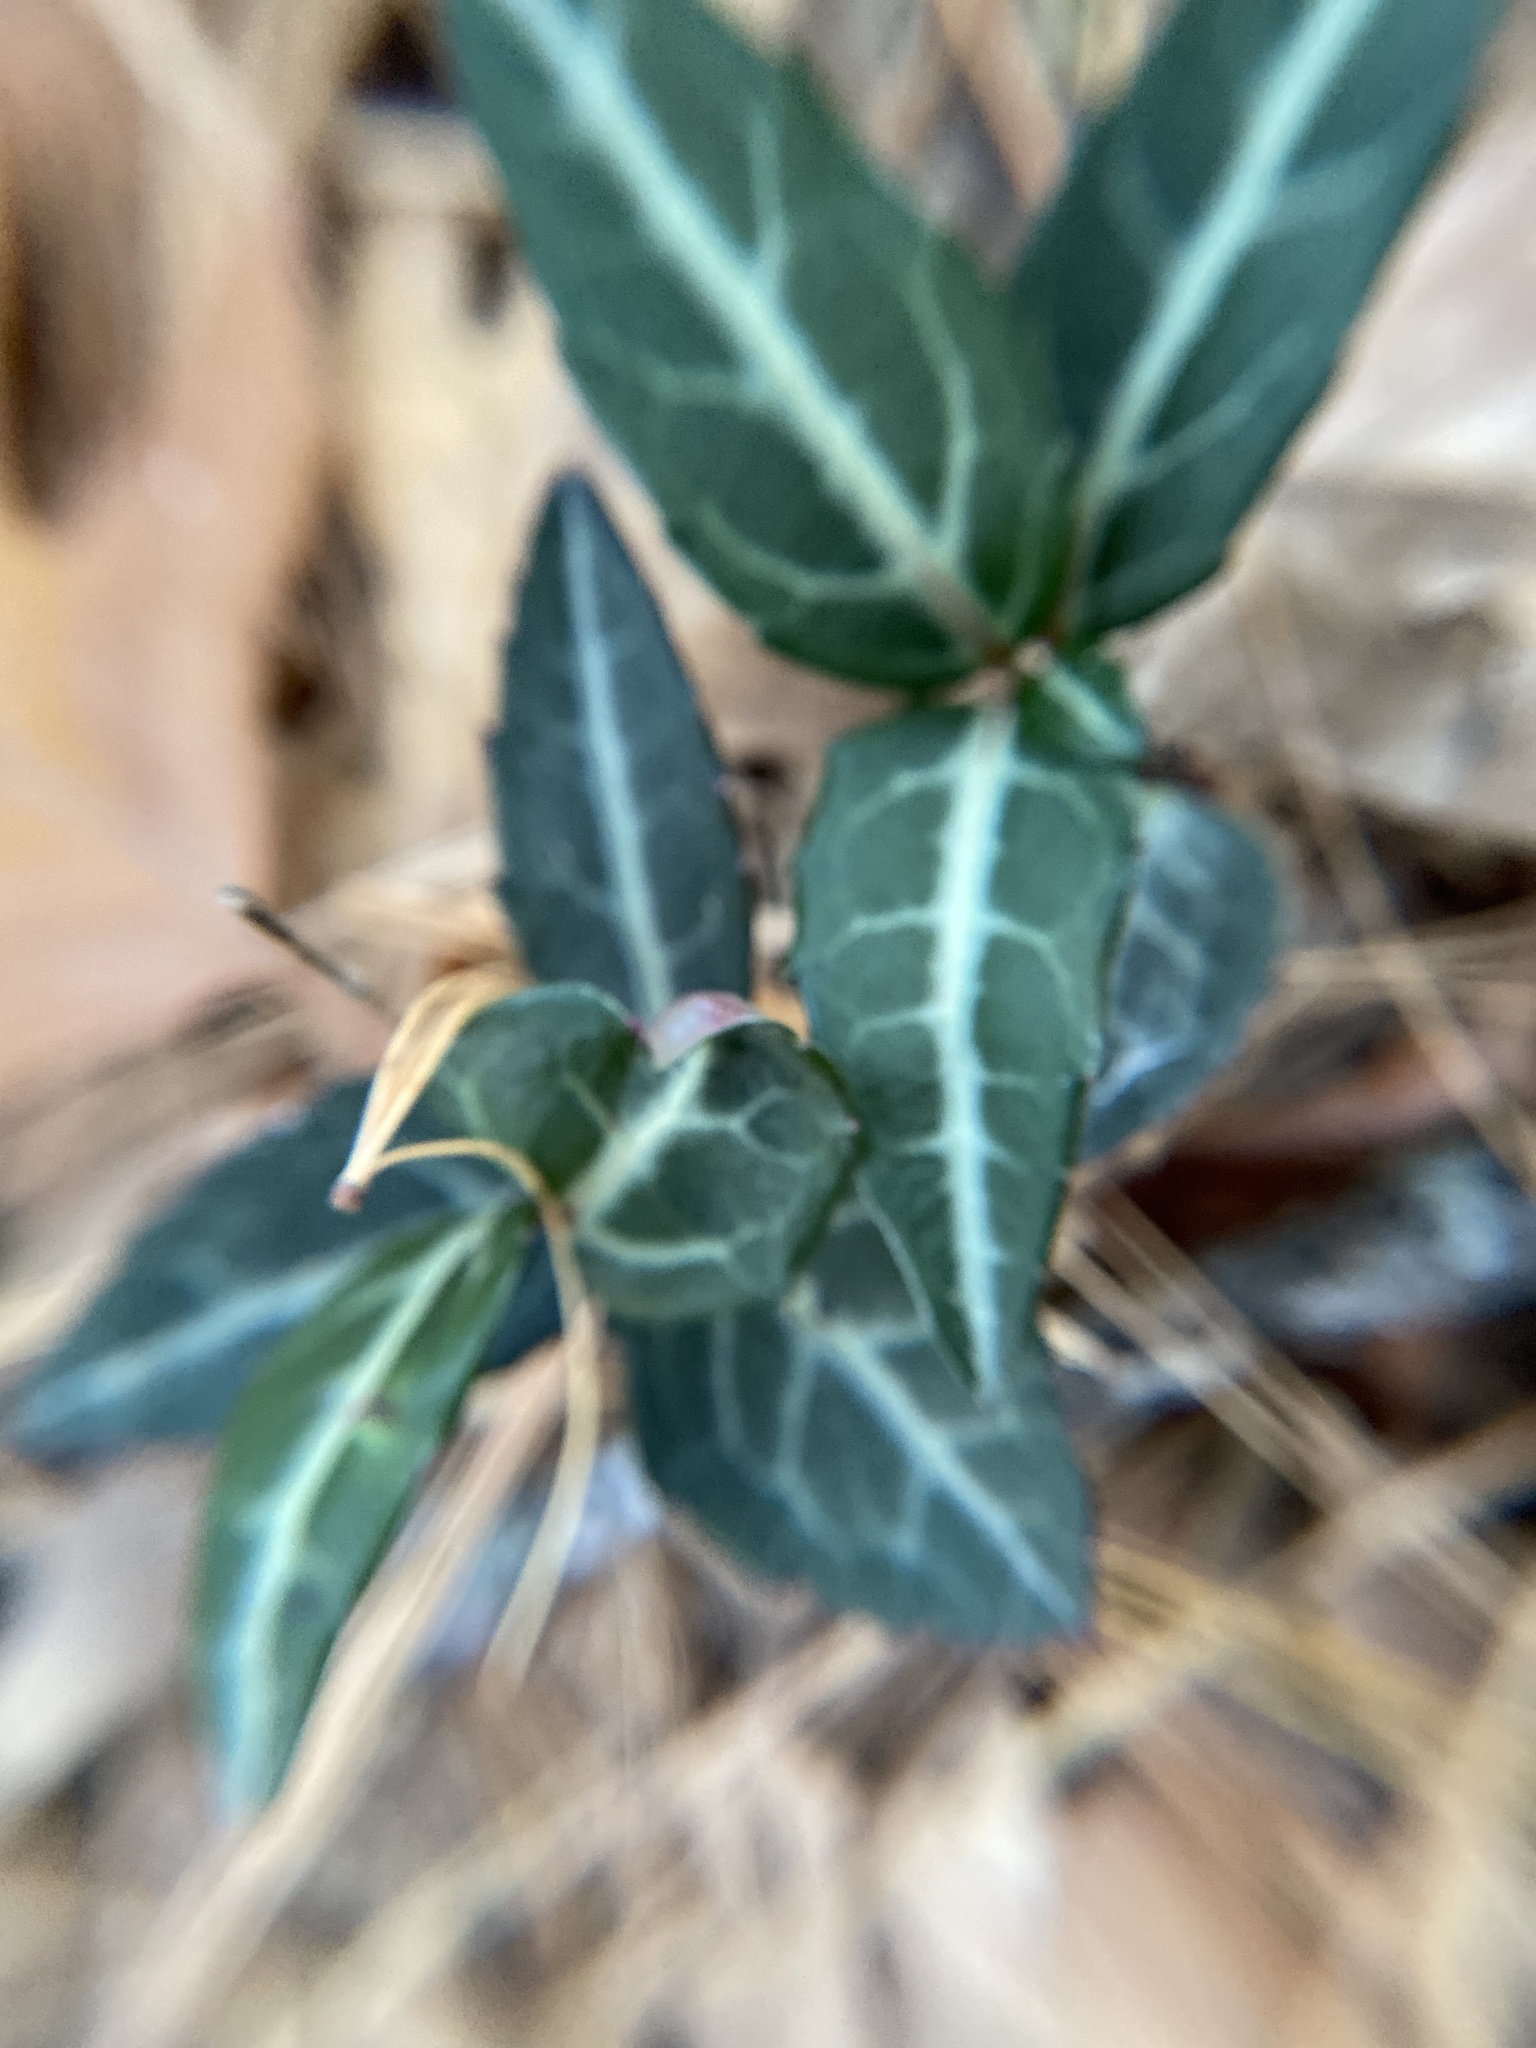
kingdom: Plantae
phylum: Tracheophyta
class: Magnoliopsida
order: Ericales
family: Ericaceae
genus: Chimaphila
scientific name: Chimaphila maculata
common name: Spotted pipsissewa
